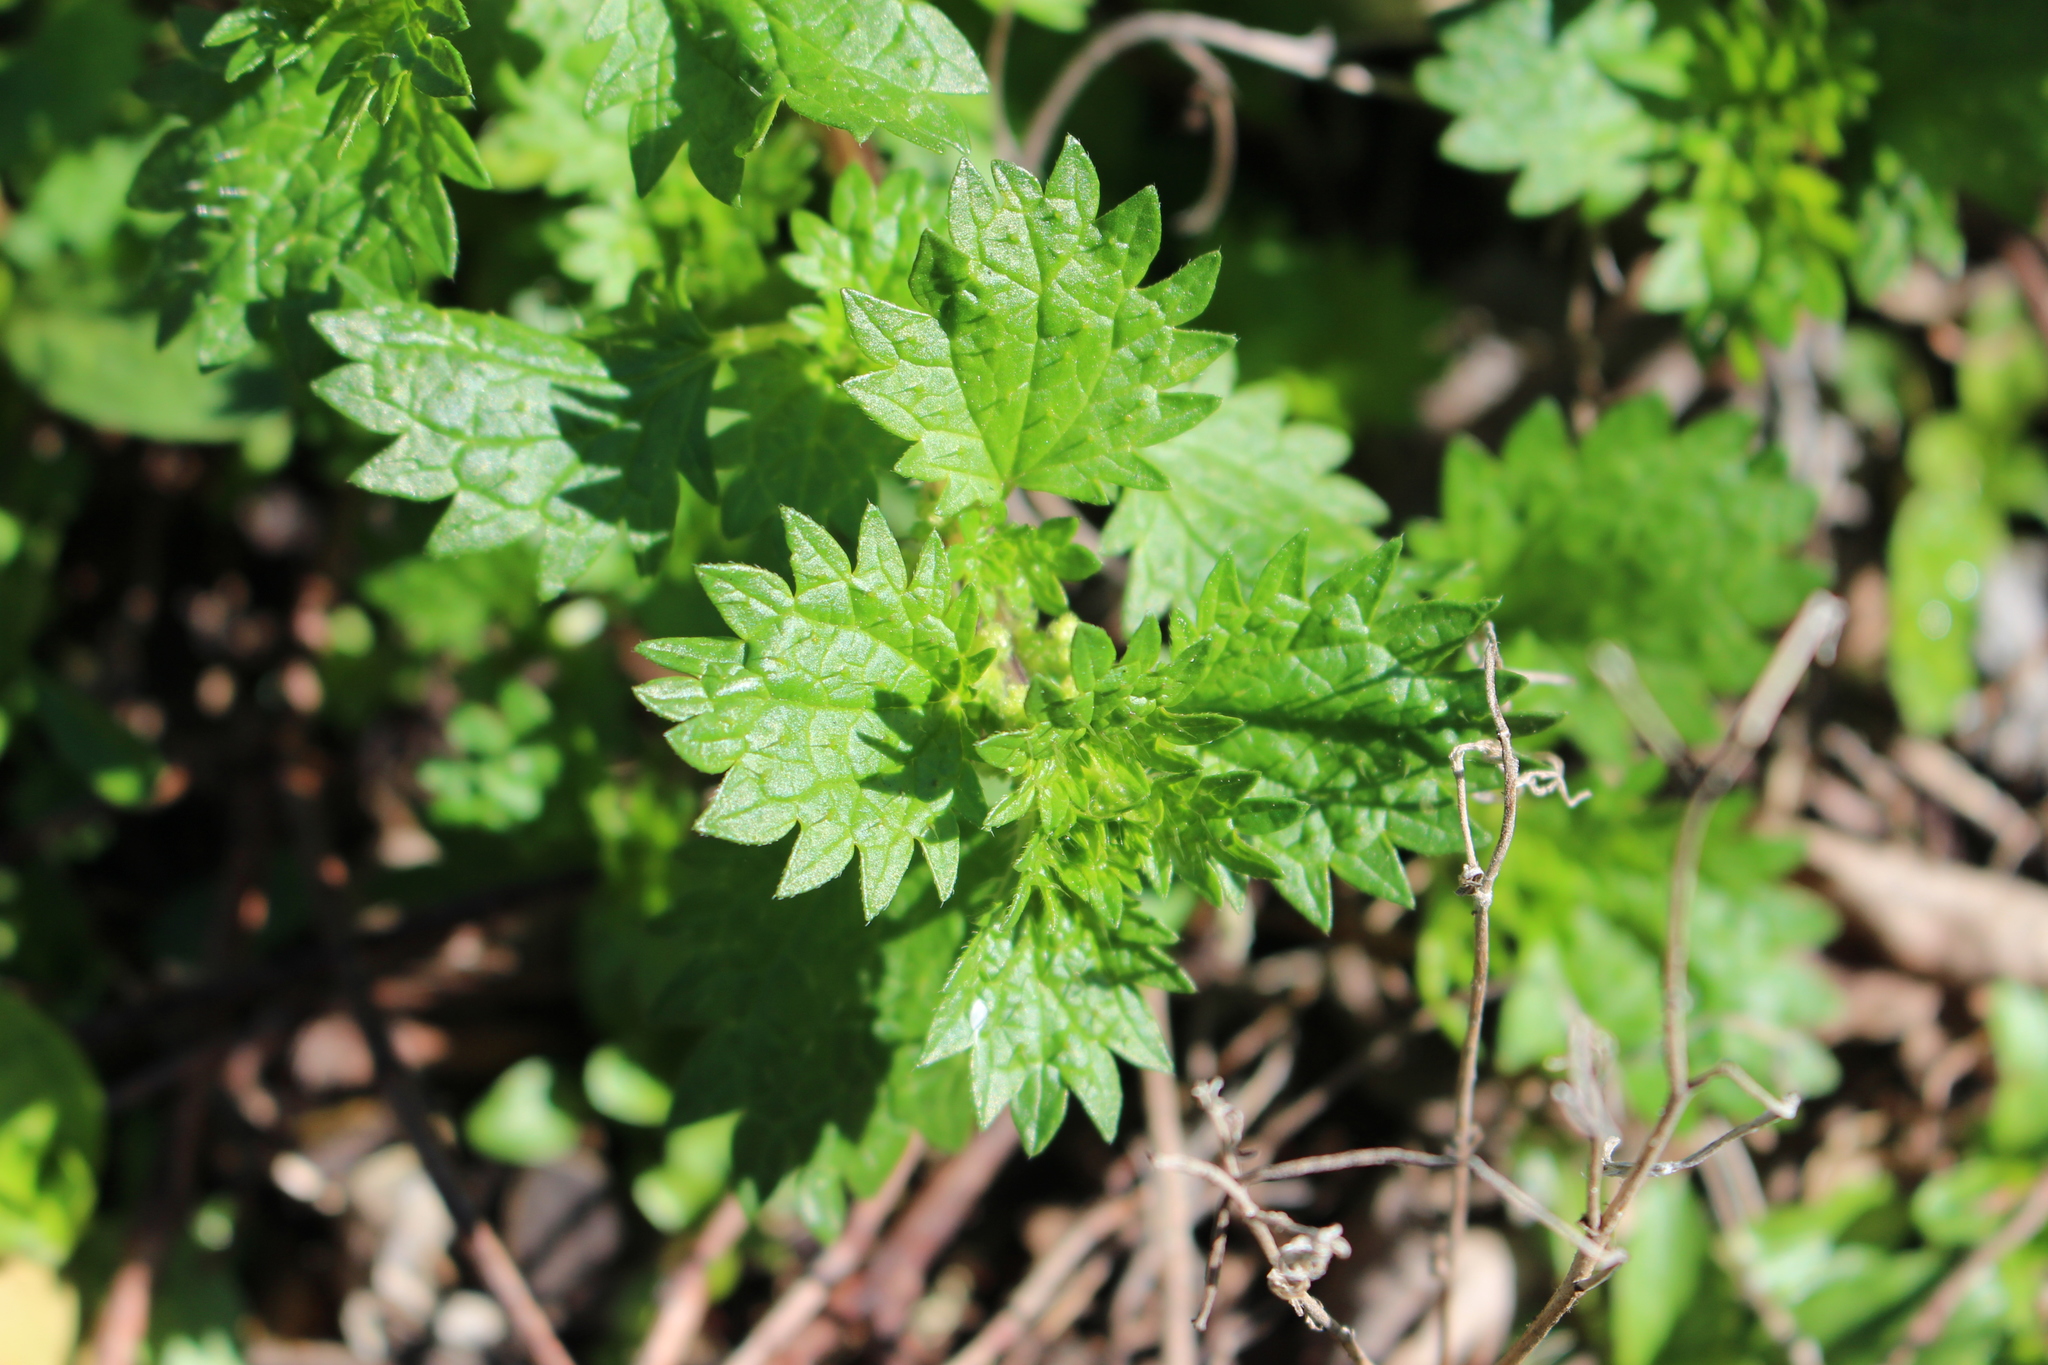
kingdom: Plantae
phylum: Tracheophyta
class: Magnoliopsida
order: Rosales
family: Urticaceae
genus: Urtica
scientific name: Urtica urens
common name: Dwarf nettle
